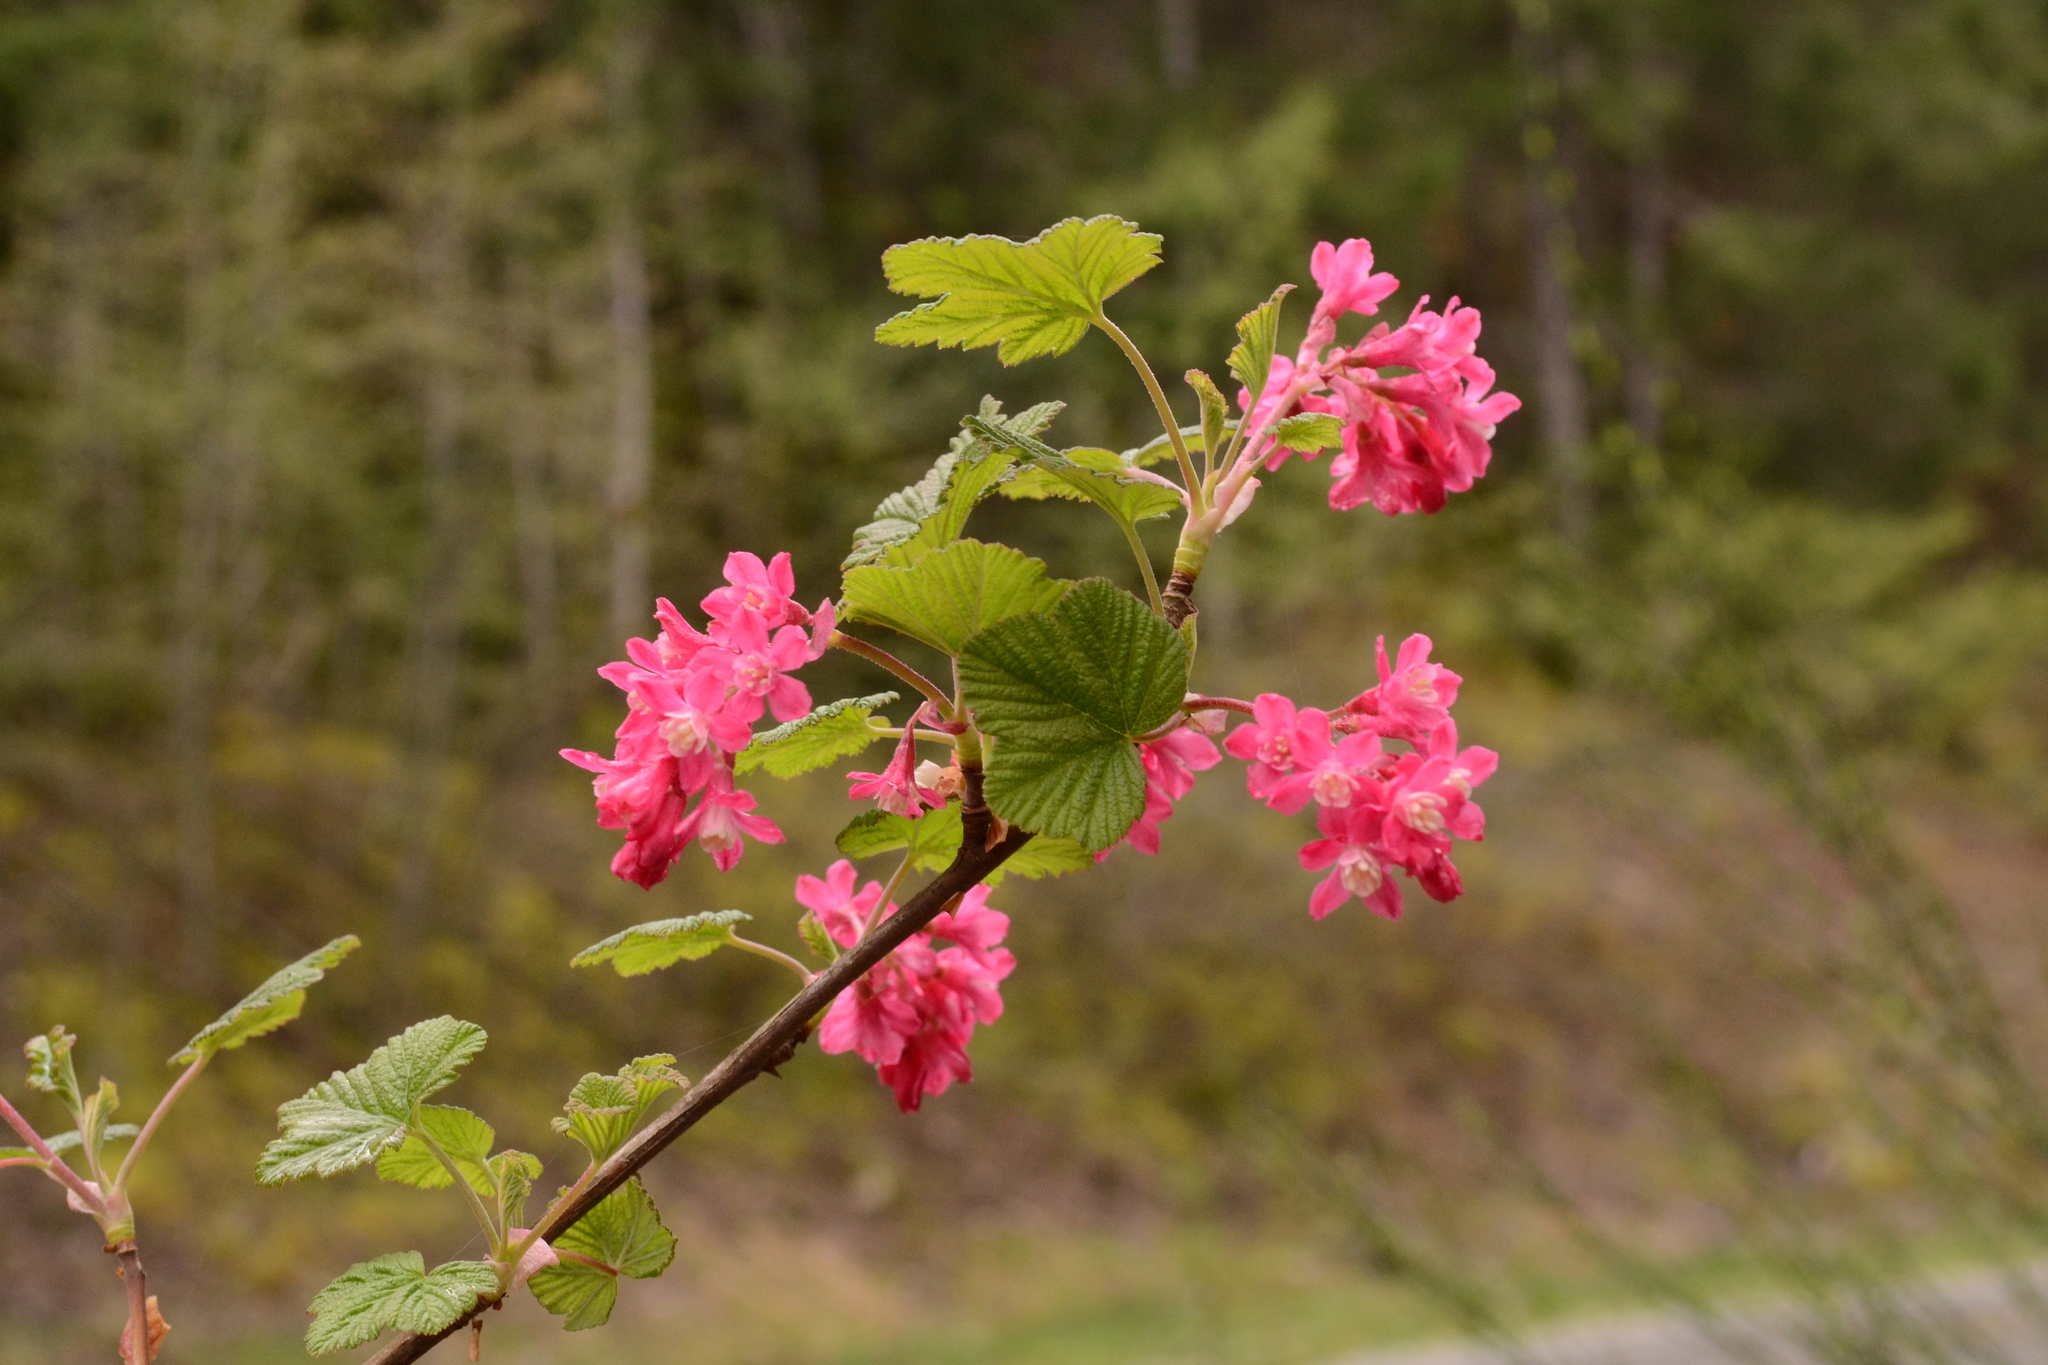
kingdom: Plantae
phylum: Tracheophyta
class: Magnoliopsida
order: Saxifragales
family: Grossulariaceae
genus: Ribes
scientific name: Ribes sanguineum
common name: Flowering currant
